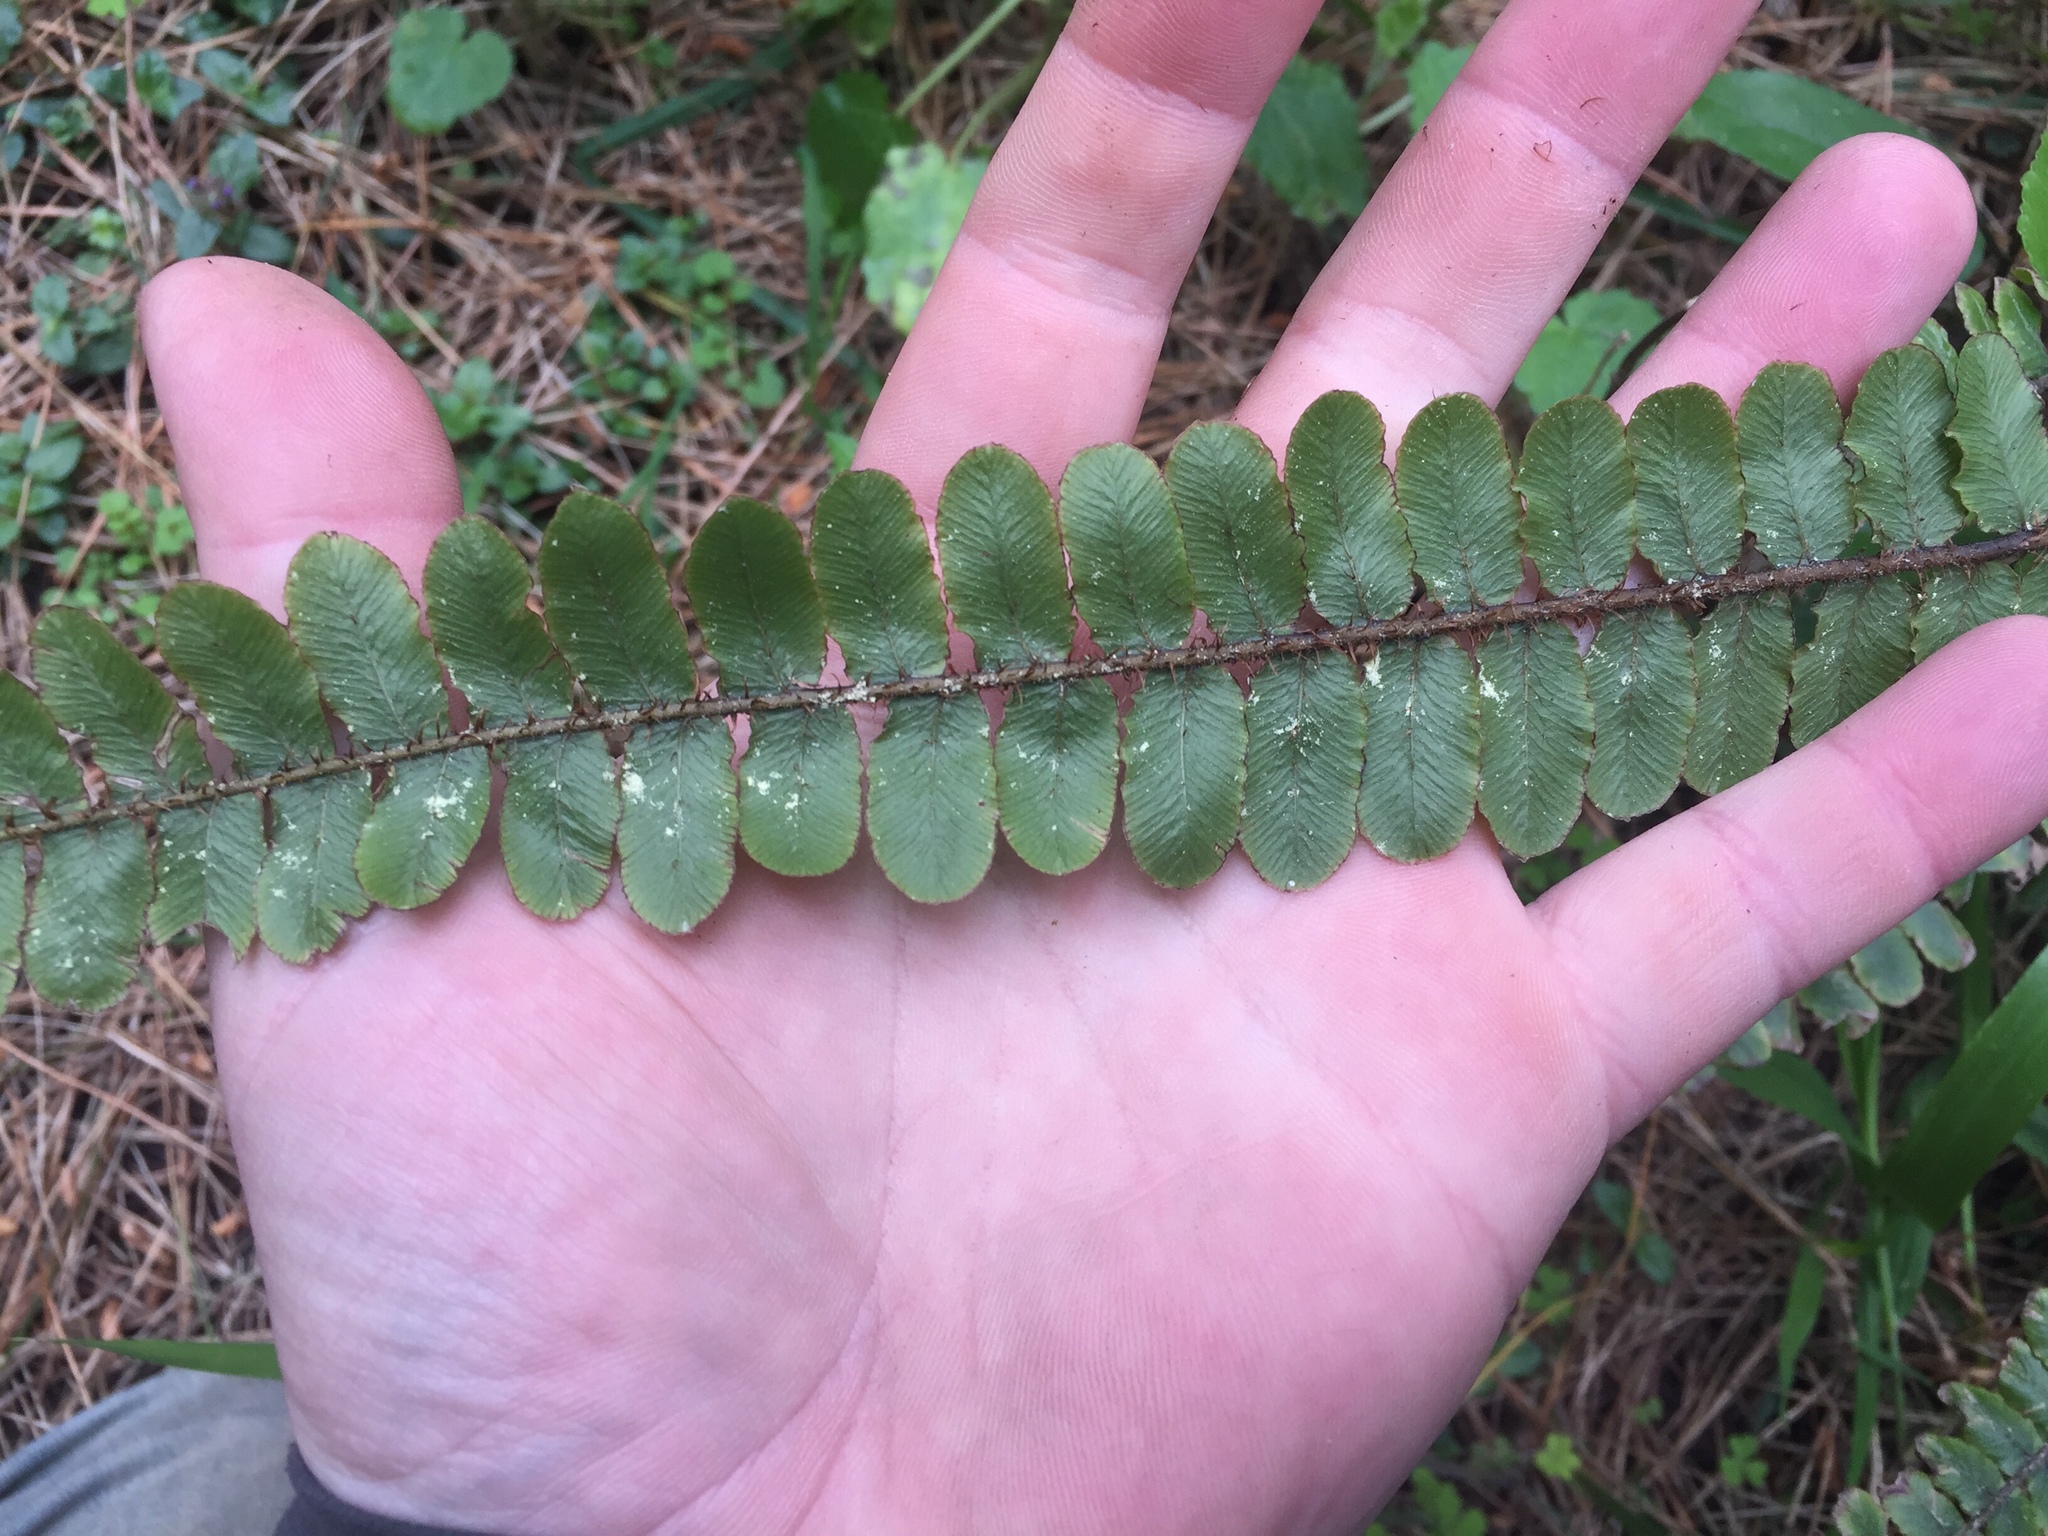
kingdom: Plantae
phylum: Tracheophyta
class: Polypodiopsida
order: Polypodiales
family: Blechnaceae
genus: Cranfillia
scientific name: Cranfillia fluviatilis
